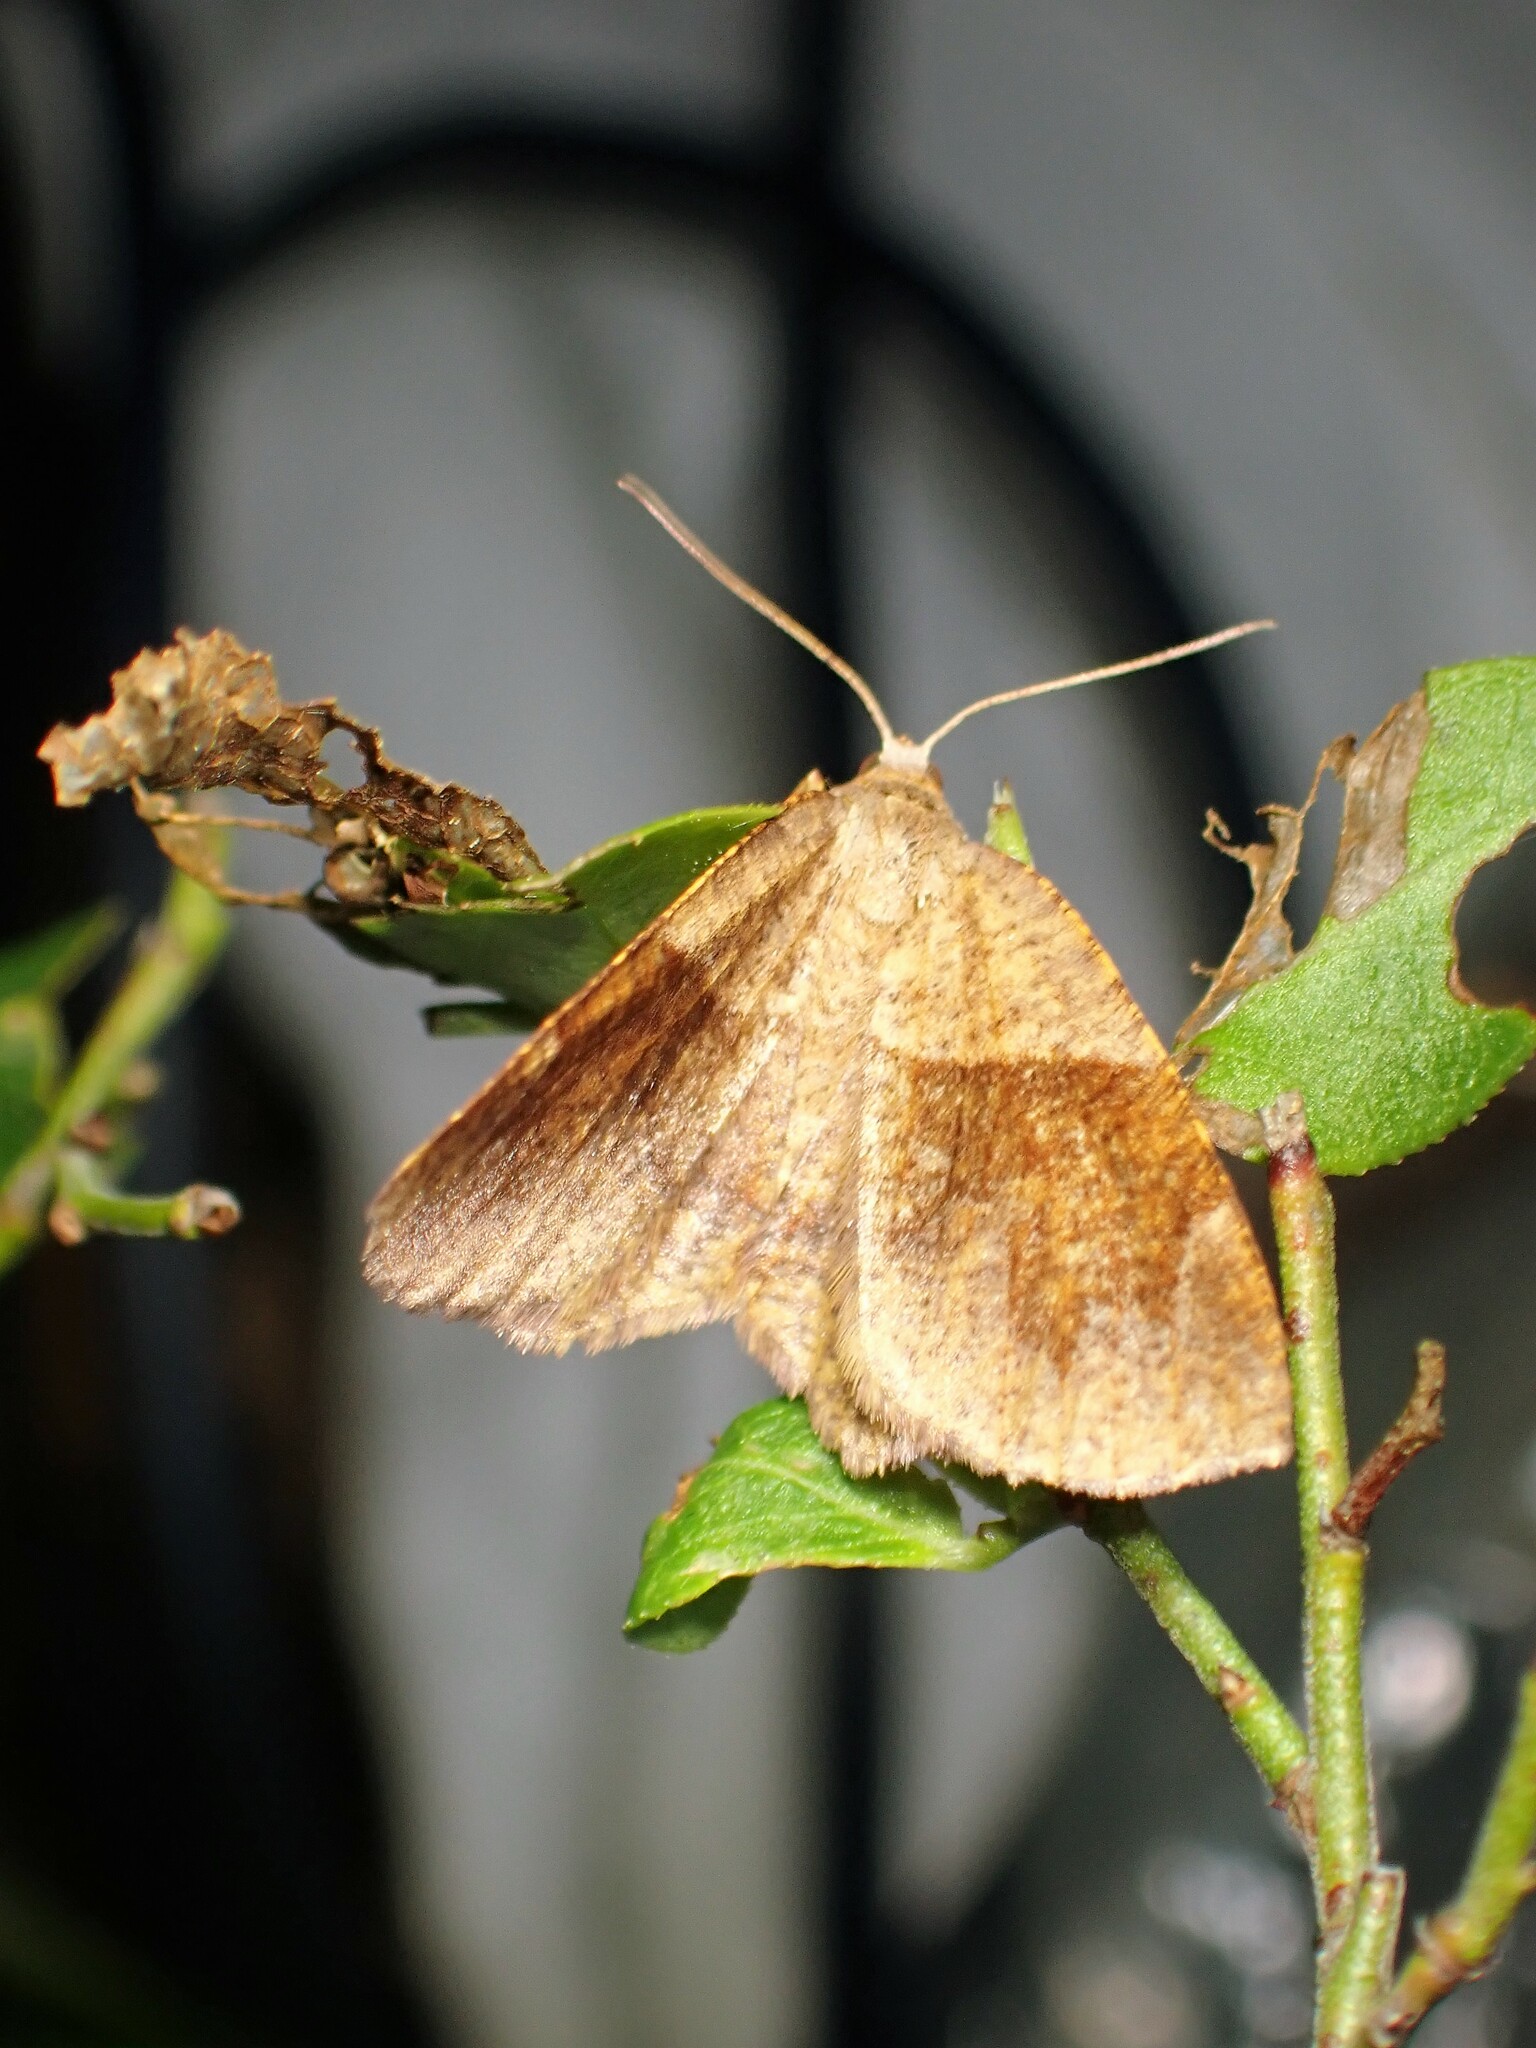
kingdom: Animalia
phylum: Arthropoda
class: Insecta
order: Lepidoptera
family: Geometridae
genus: Plagodis
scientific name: Plagodis pulveraria
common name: Barred umber
